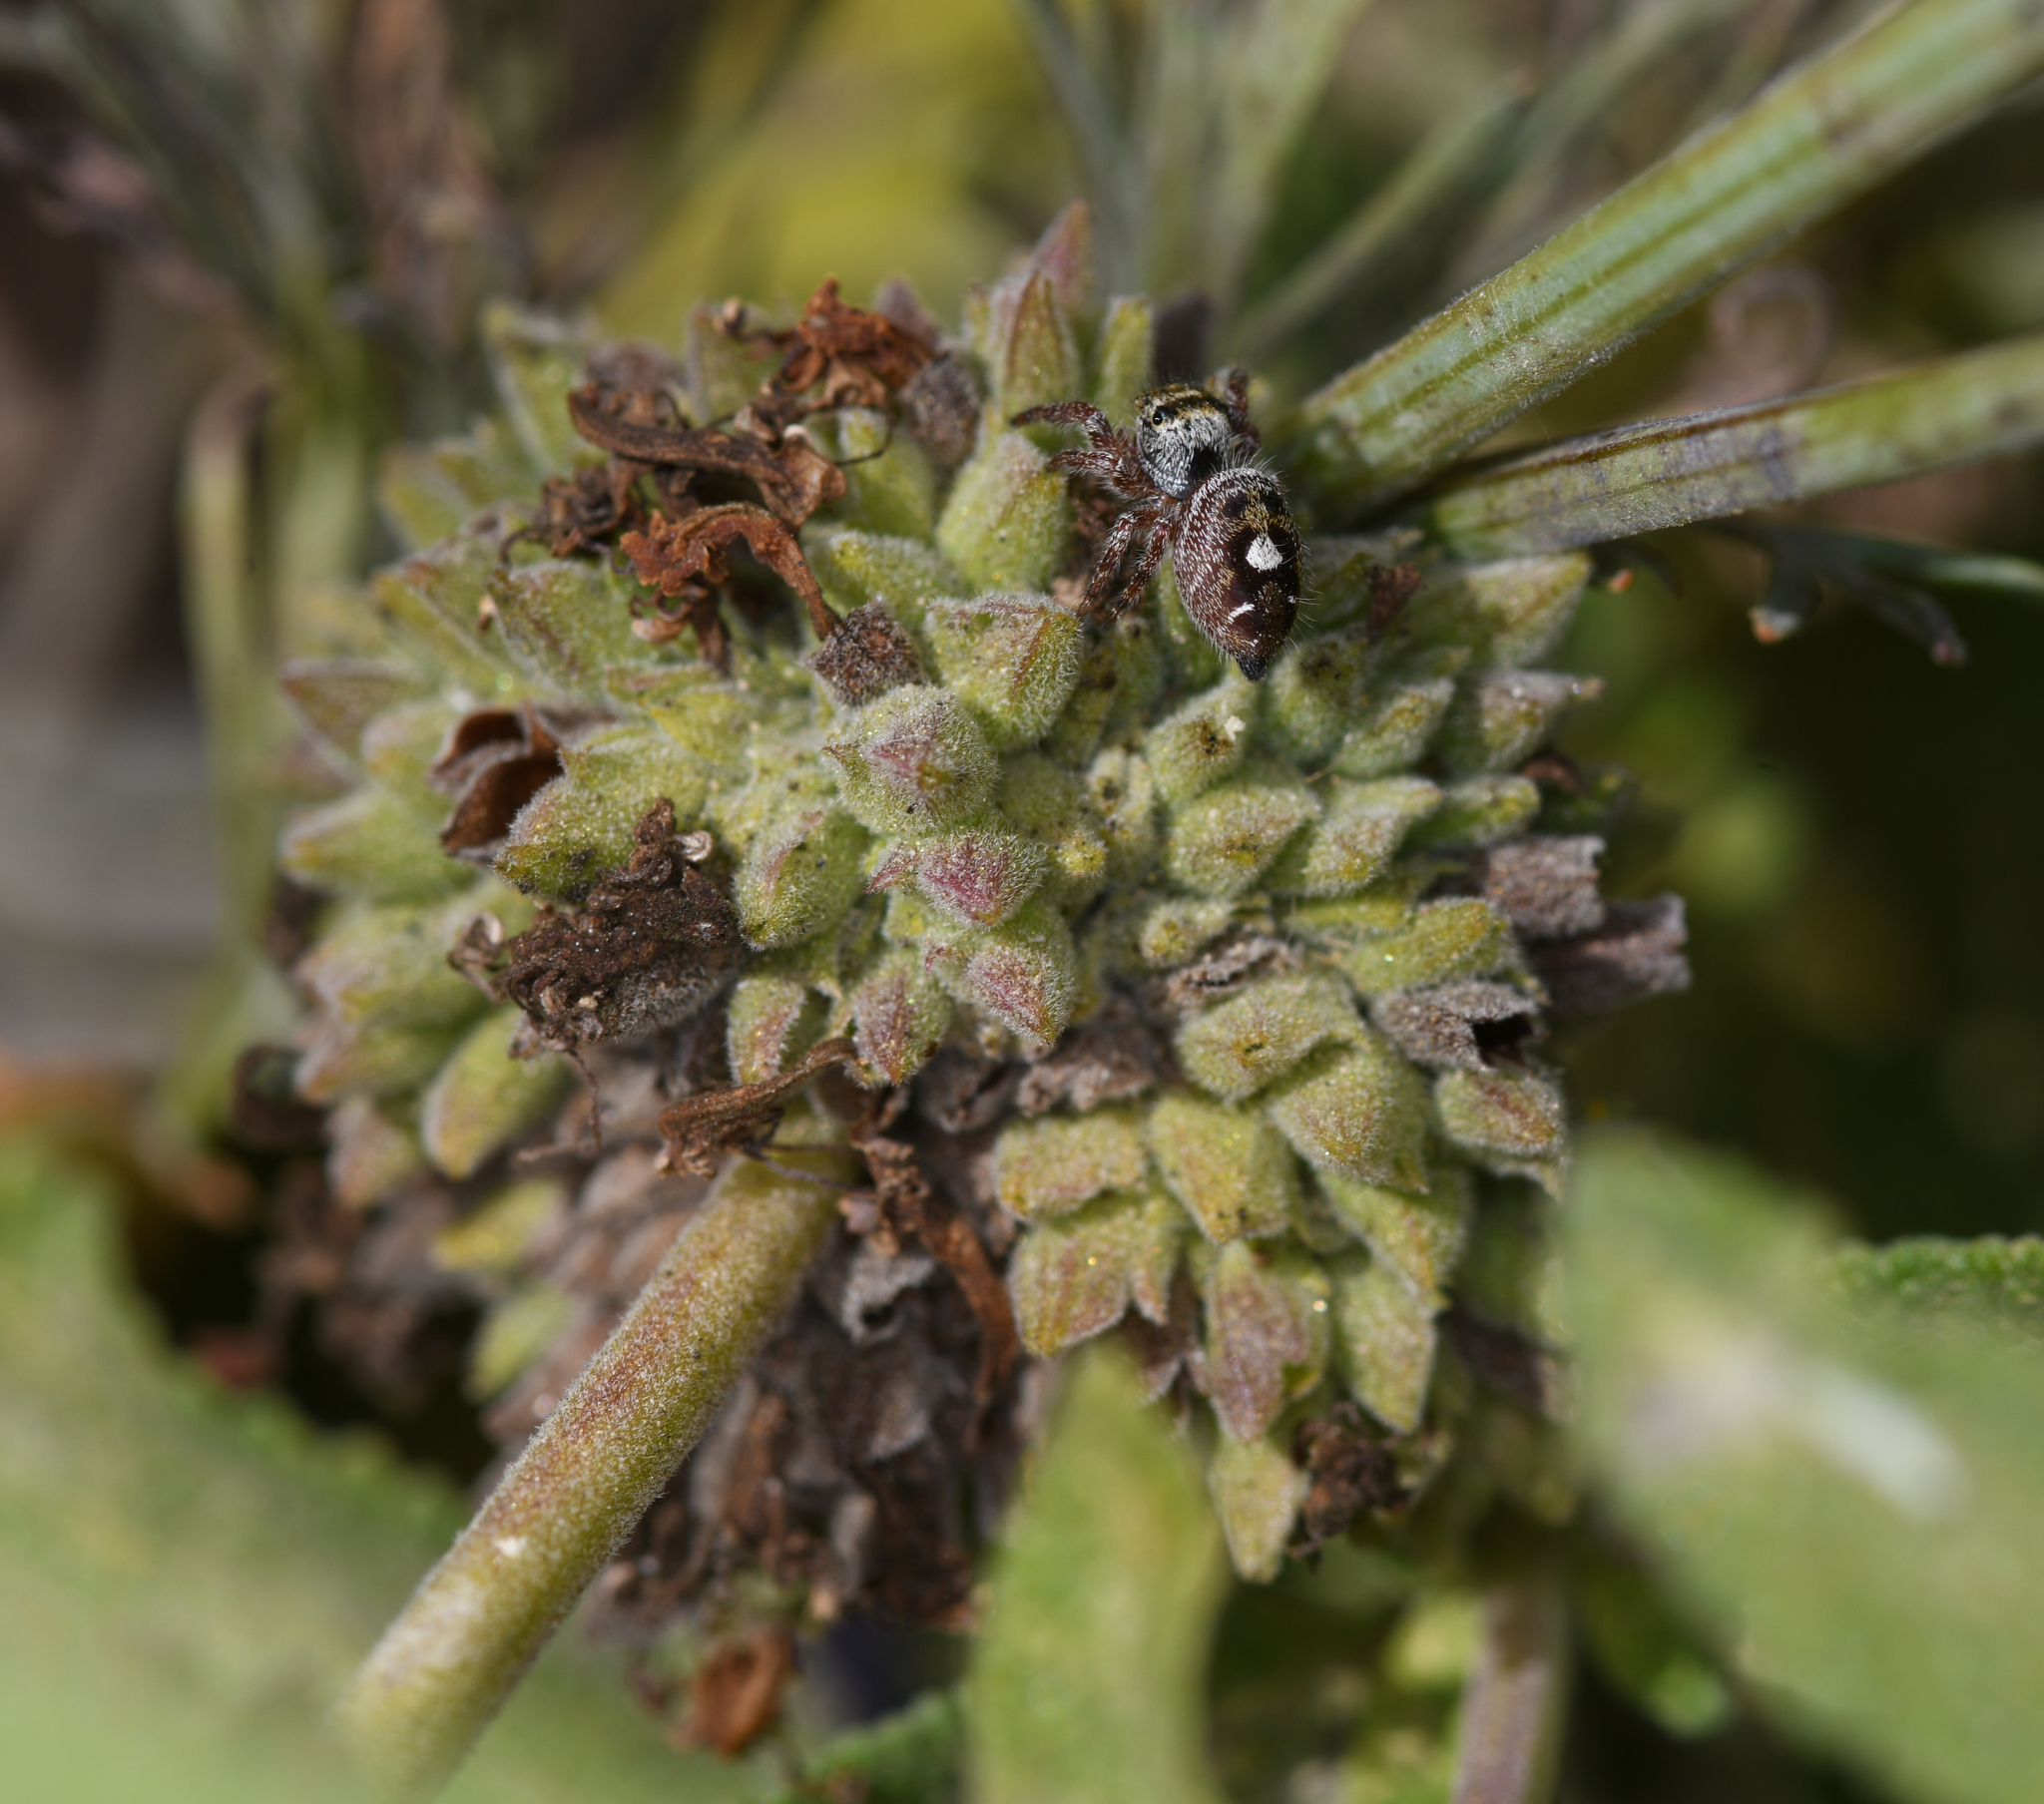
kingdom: Animalia
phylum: Arthropoda
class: Arachnida
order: Araneae
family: Salticidae
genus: Phidippus
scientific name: Phidippus audax
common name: Bold jumper
